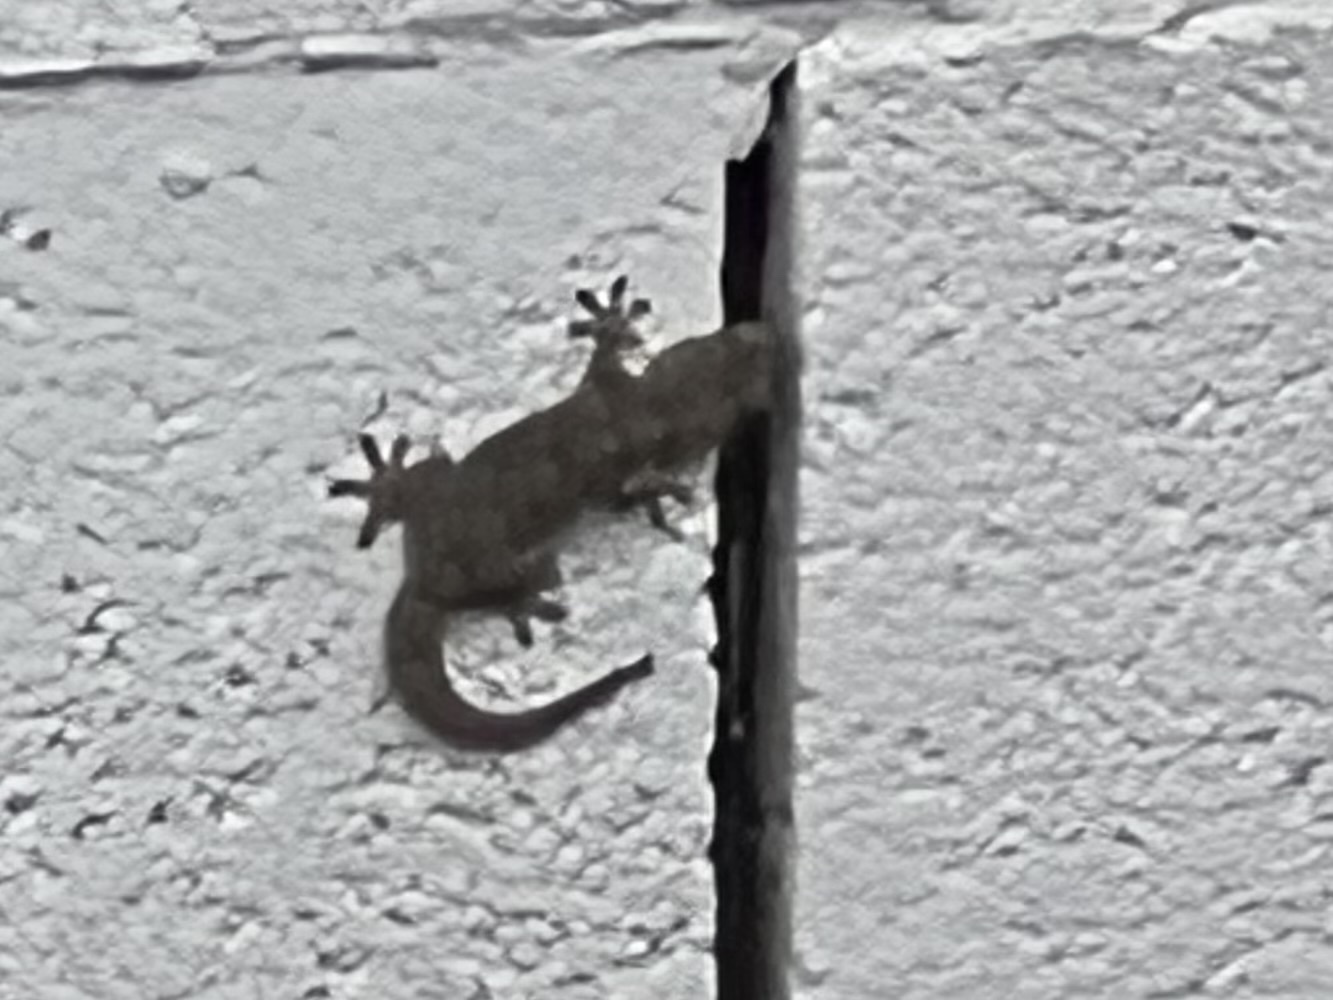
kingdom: Animalia
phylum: Chordata
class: Squamata
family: Phyllodactylidae
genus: Tarentola
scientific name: Tarentola mauritanica
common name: Moorish gecko
